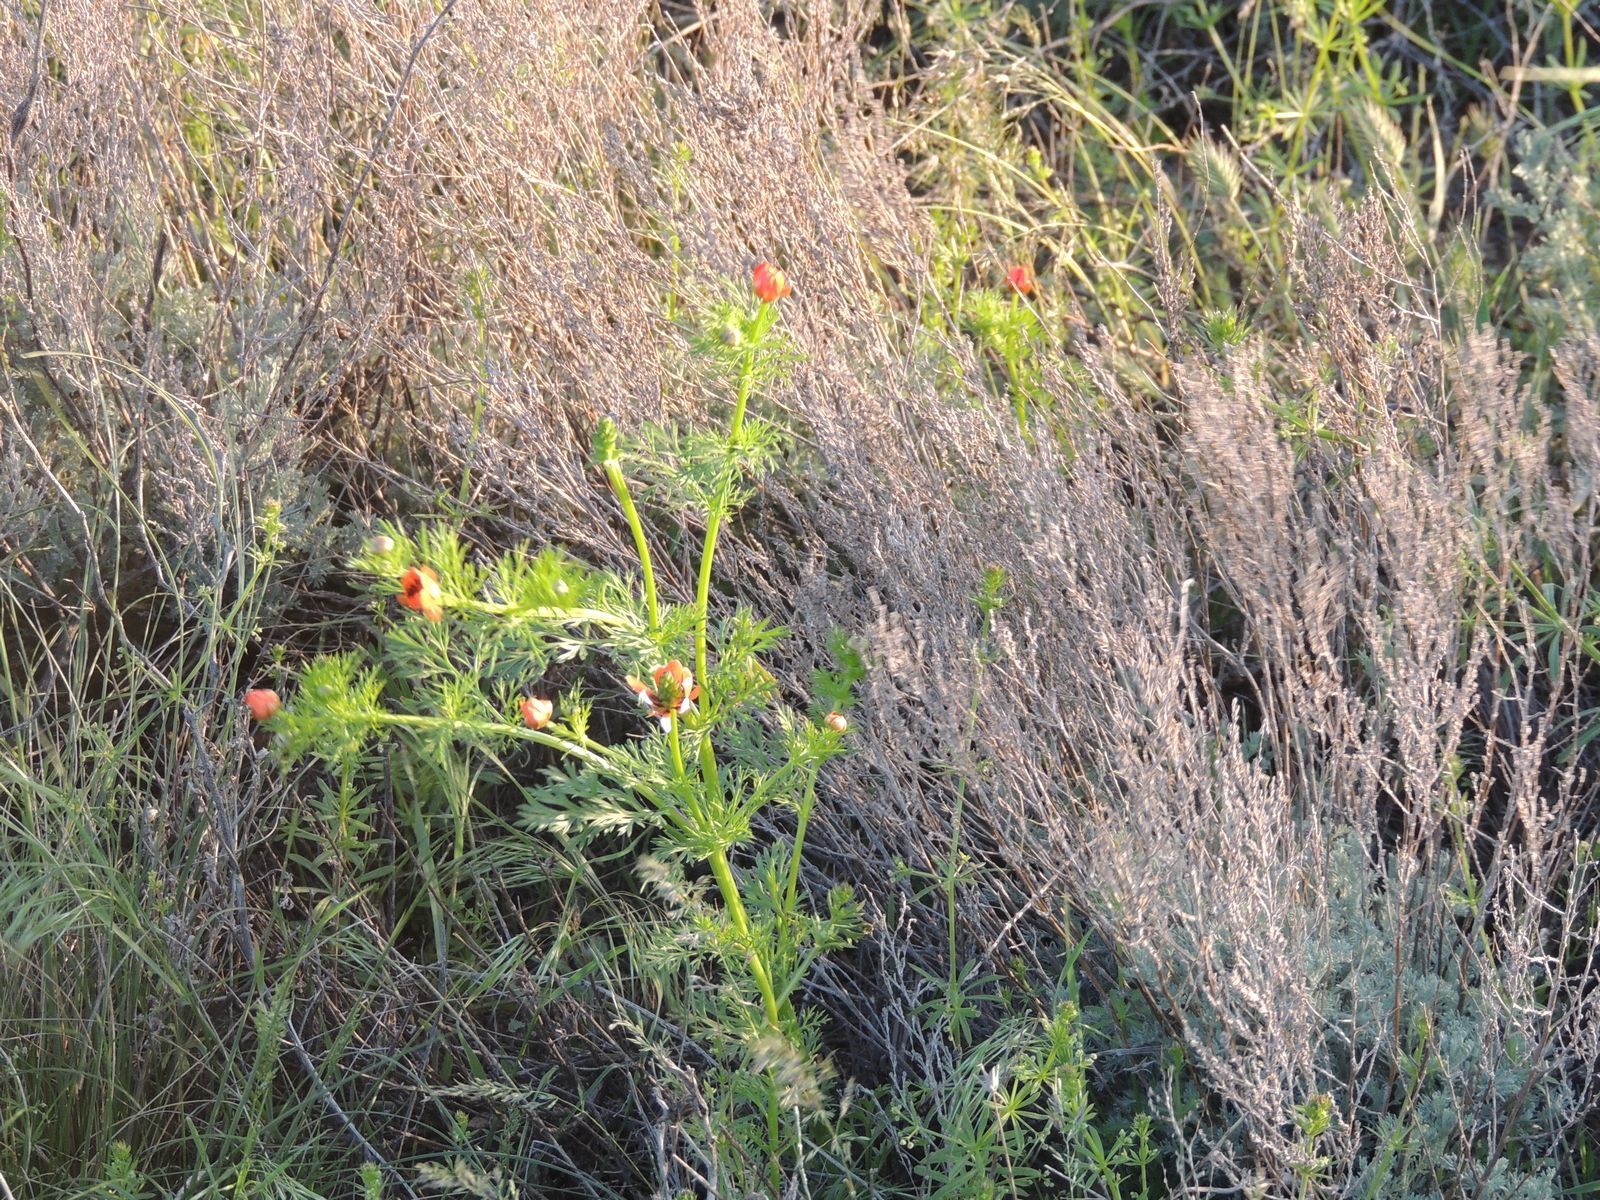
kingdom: Plantae
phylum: Tracheophyta
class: Magnoliopsida
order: Ranunculales
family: Ranunculaceae
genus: Adonis
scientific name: Adonis aestivalis
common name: Summer pheasant's-eye
